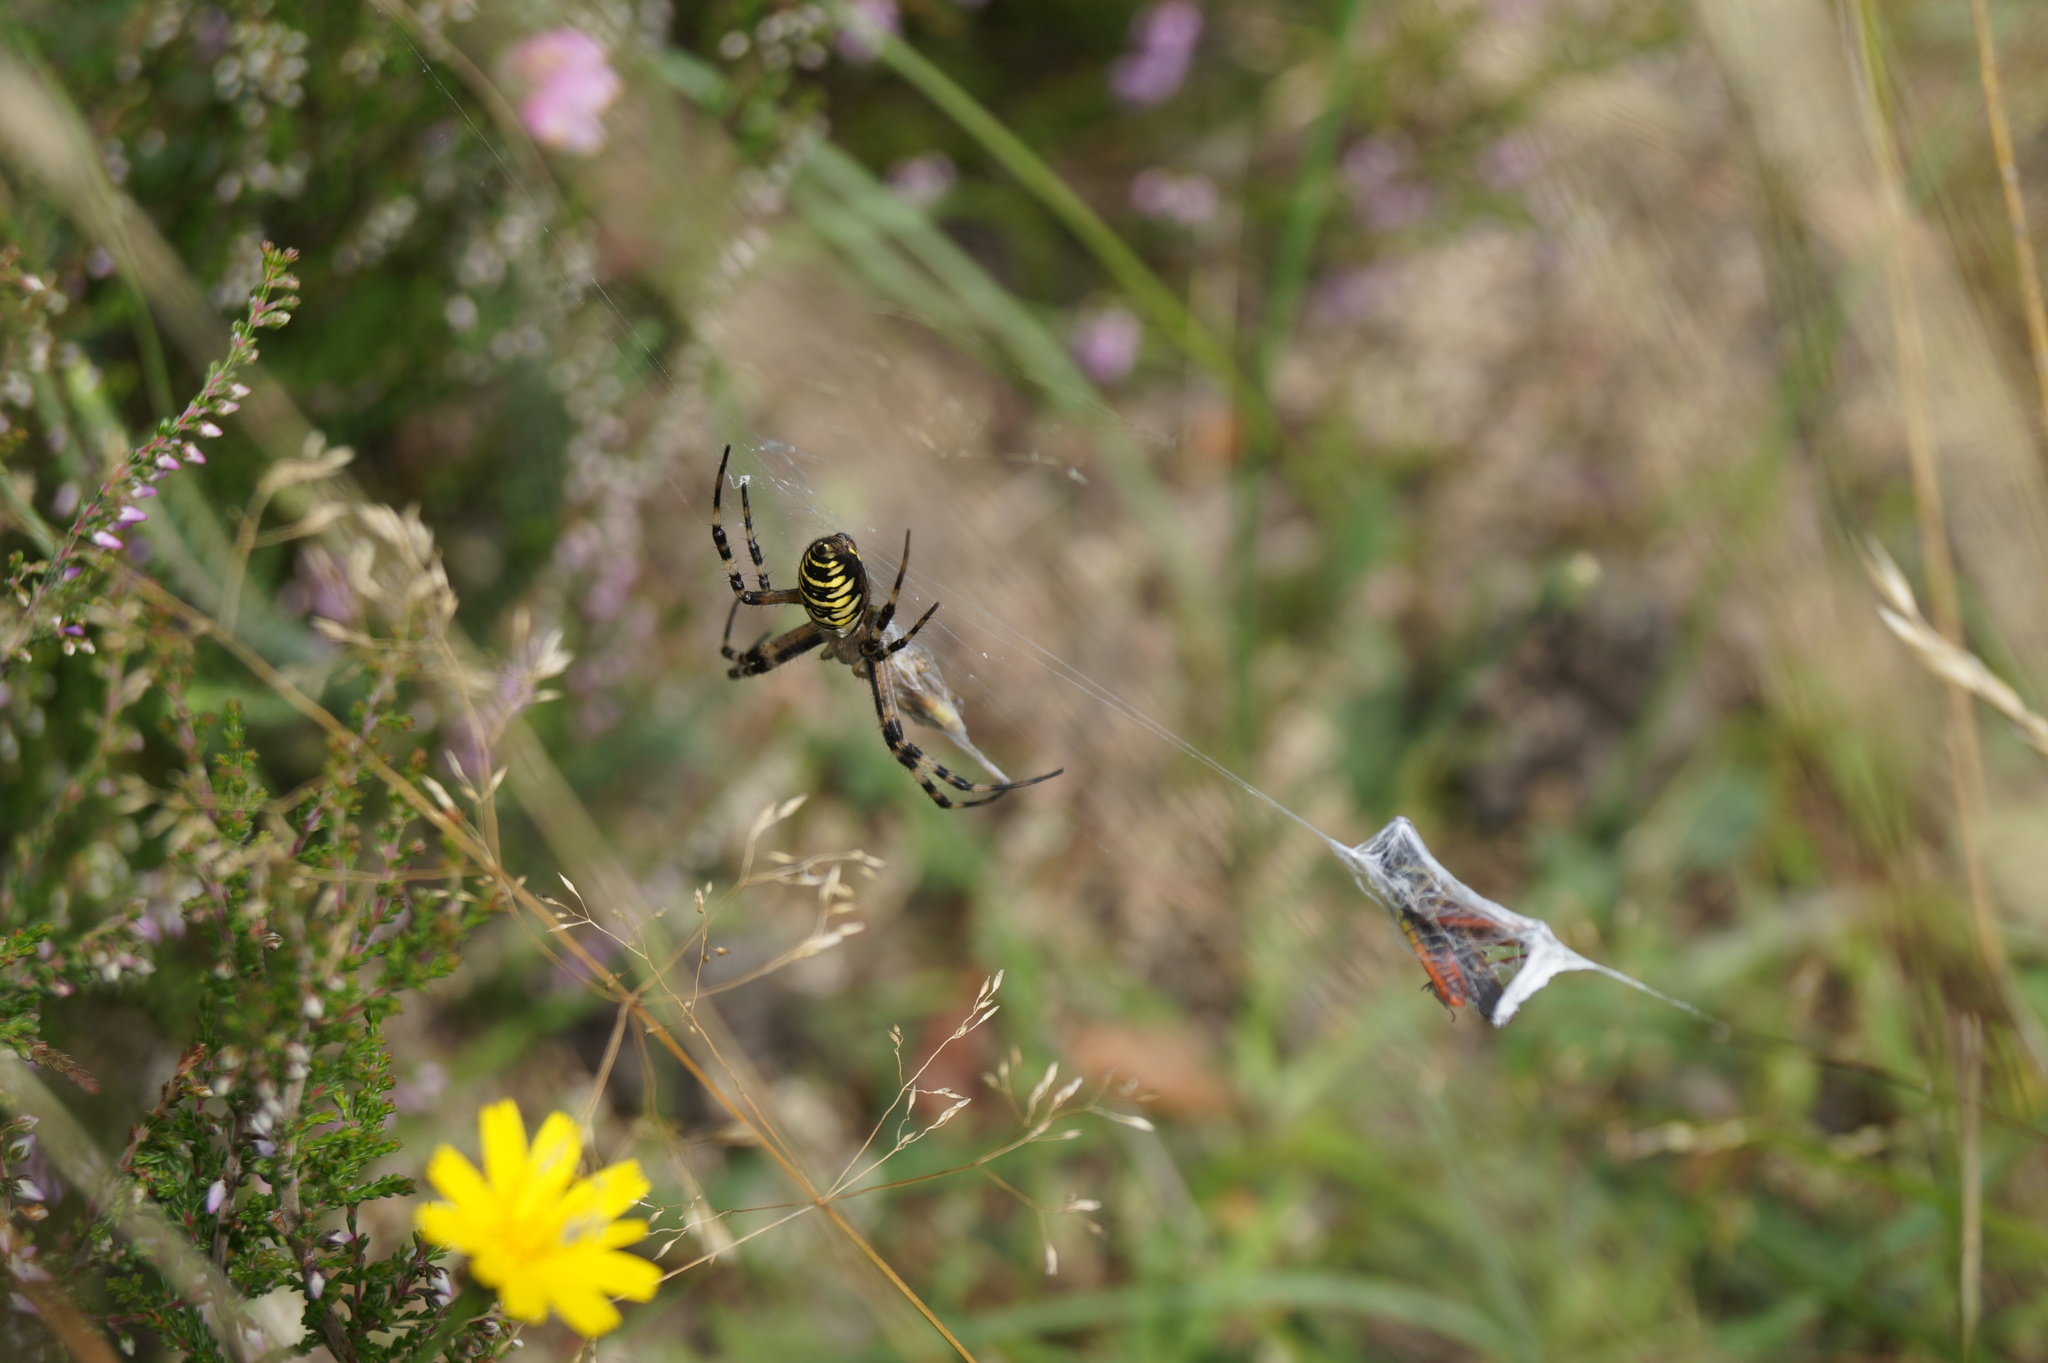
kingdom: Animalia
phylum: Arthropoda
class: Arachnida
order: Araneae
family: Araneidae
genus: Argiope
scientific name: Argiope bruennichi
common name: Wasp spider
